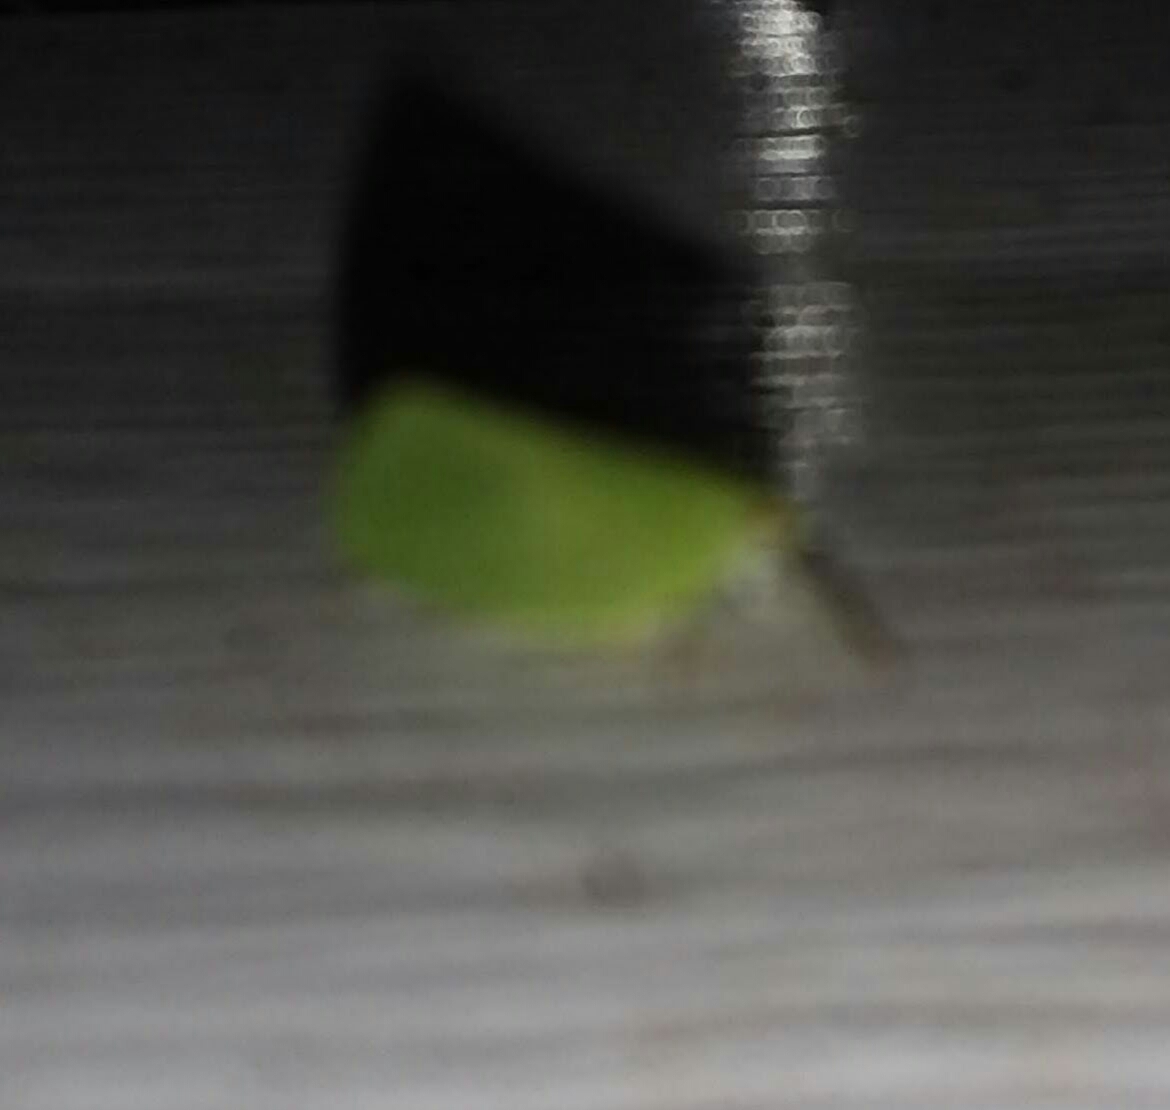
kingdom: Animalia
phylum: Arthropoda
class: Insecta
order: Hemiptera
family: Acanaloniidae
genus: Acanalonia
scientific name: Acanalonia conica
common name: Green cone-headed planthopper
